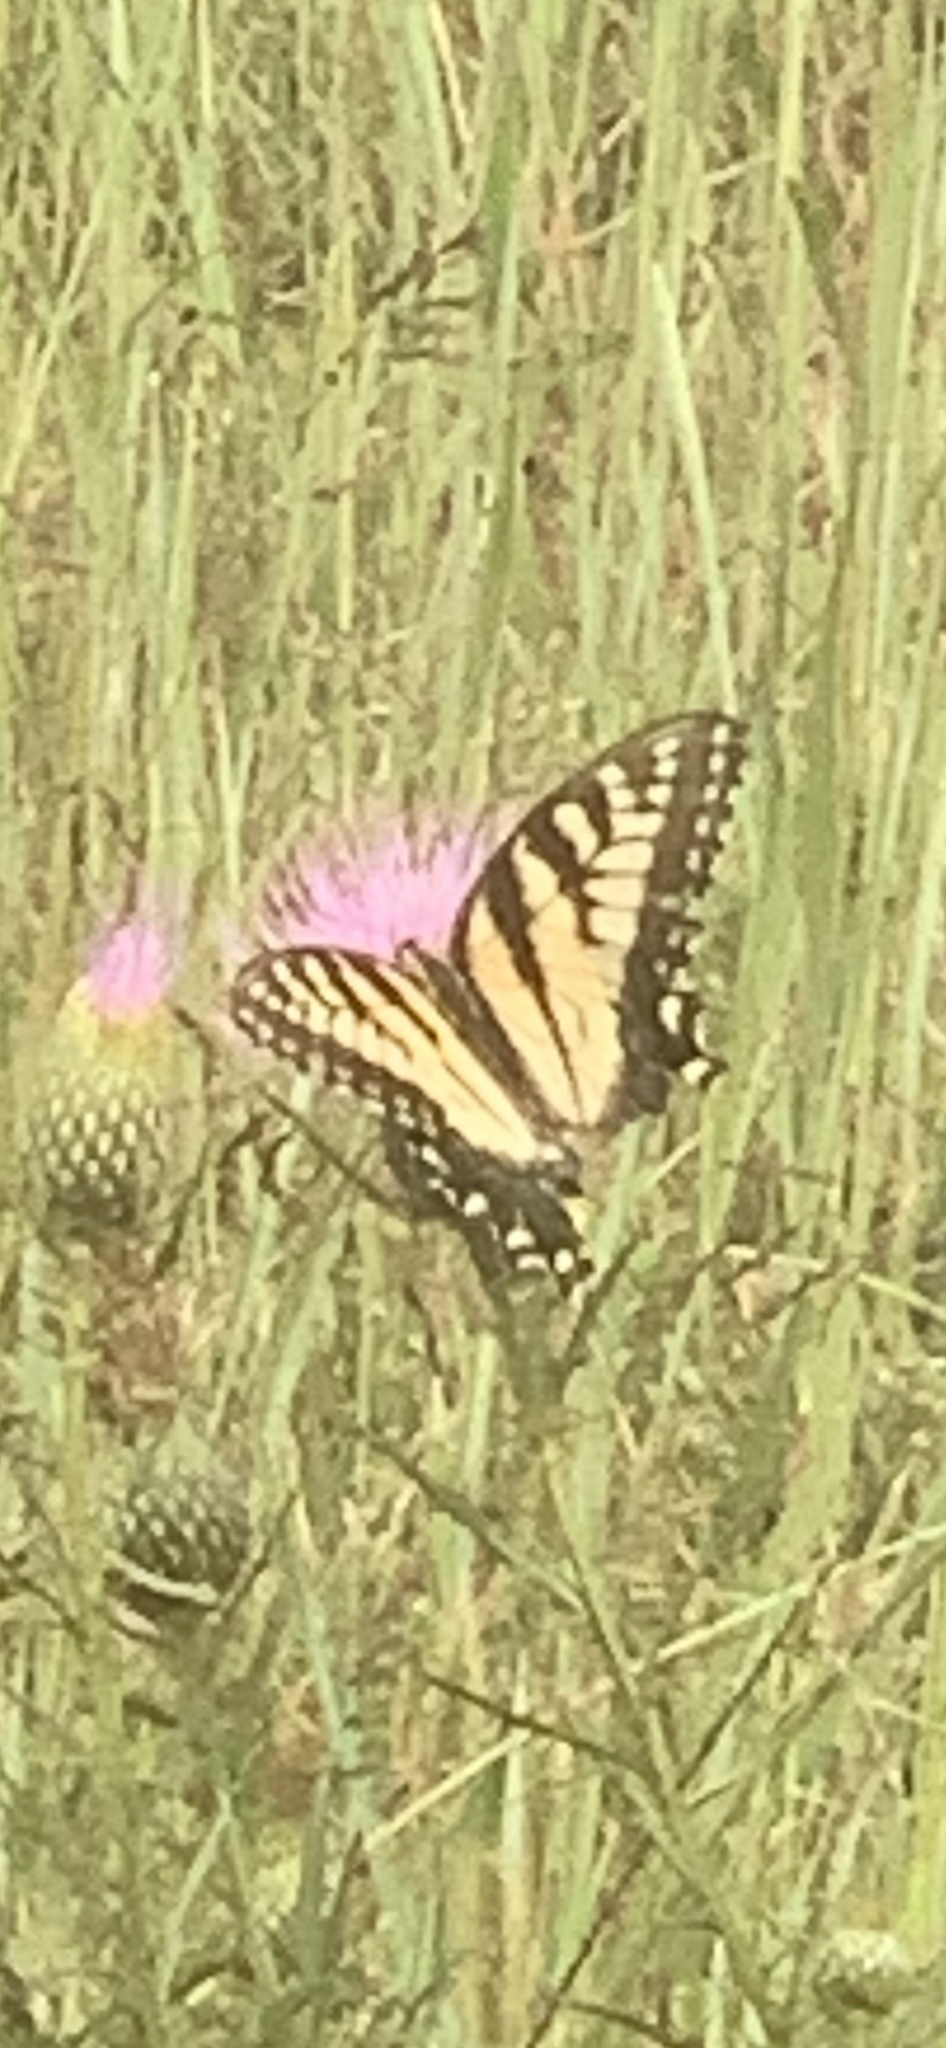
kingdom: Animalia
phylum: Arthropoda
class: Insecta
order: Lepidoptera
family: Papilionidae
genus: Papilio
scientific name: Papilio glaucus
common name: Tiger swallowtail
